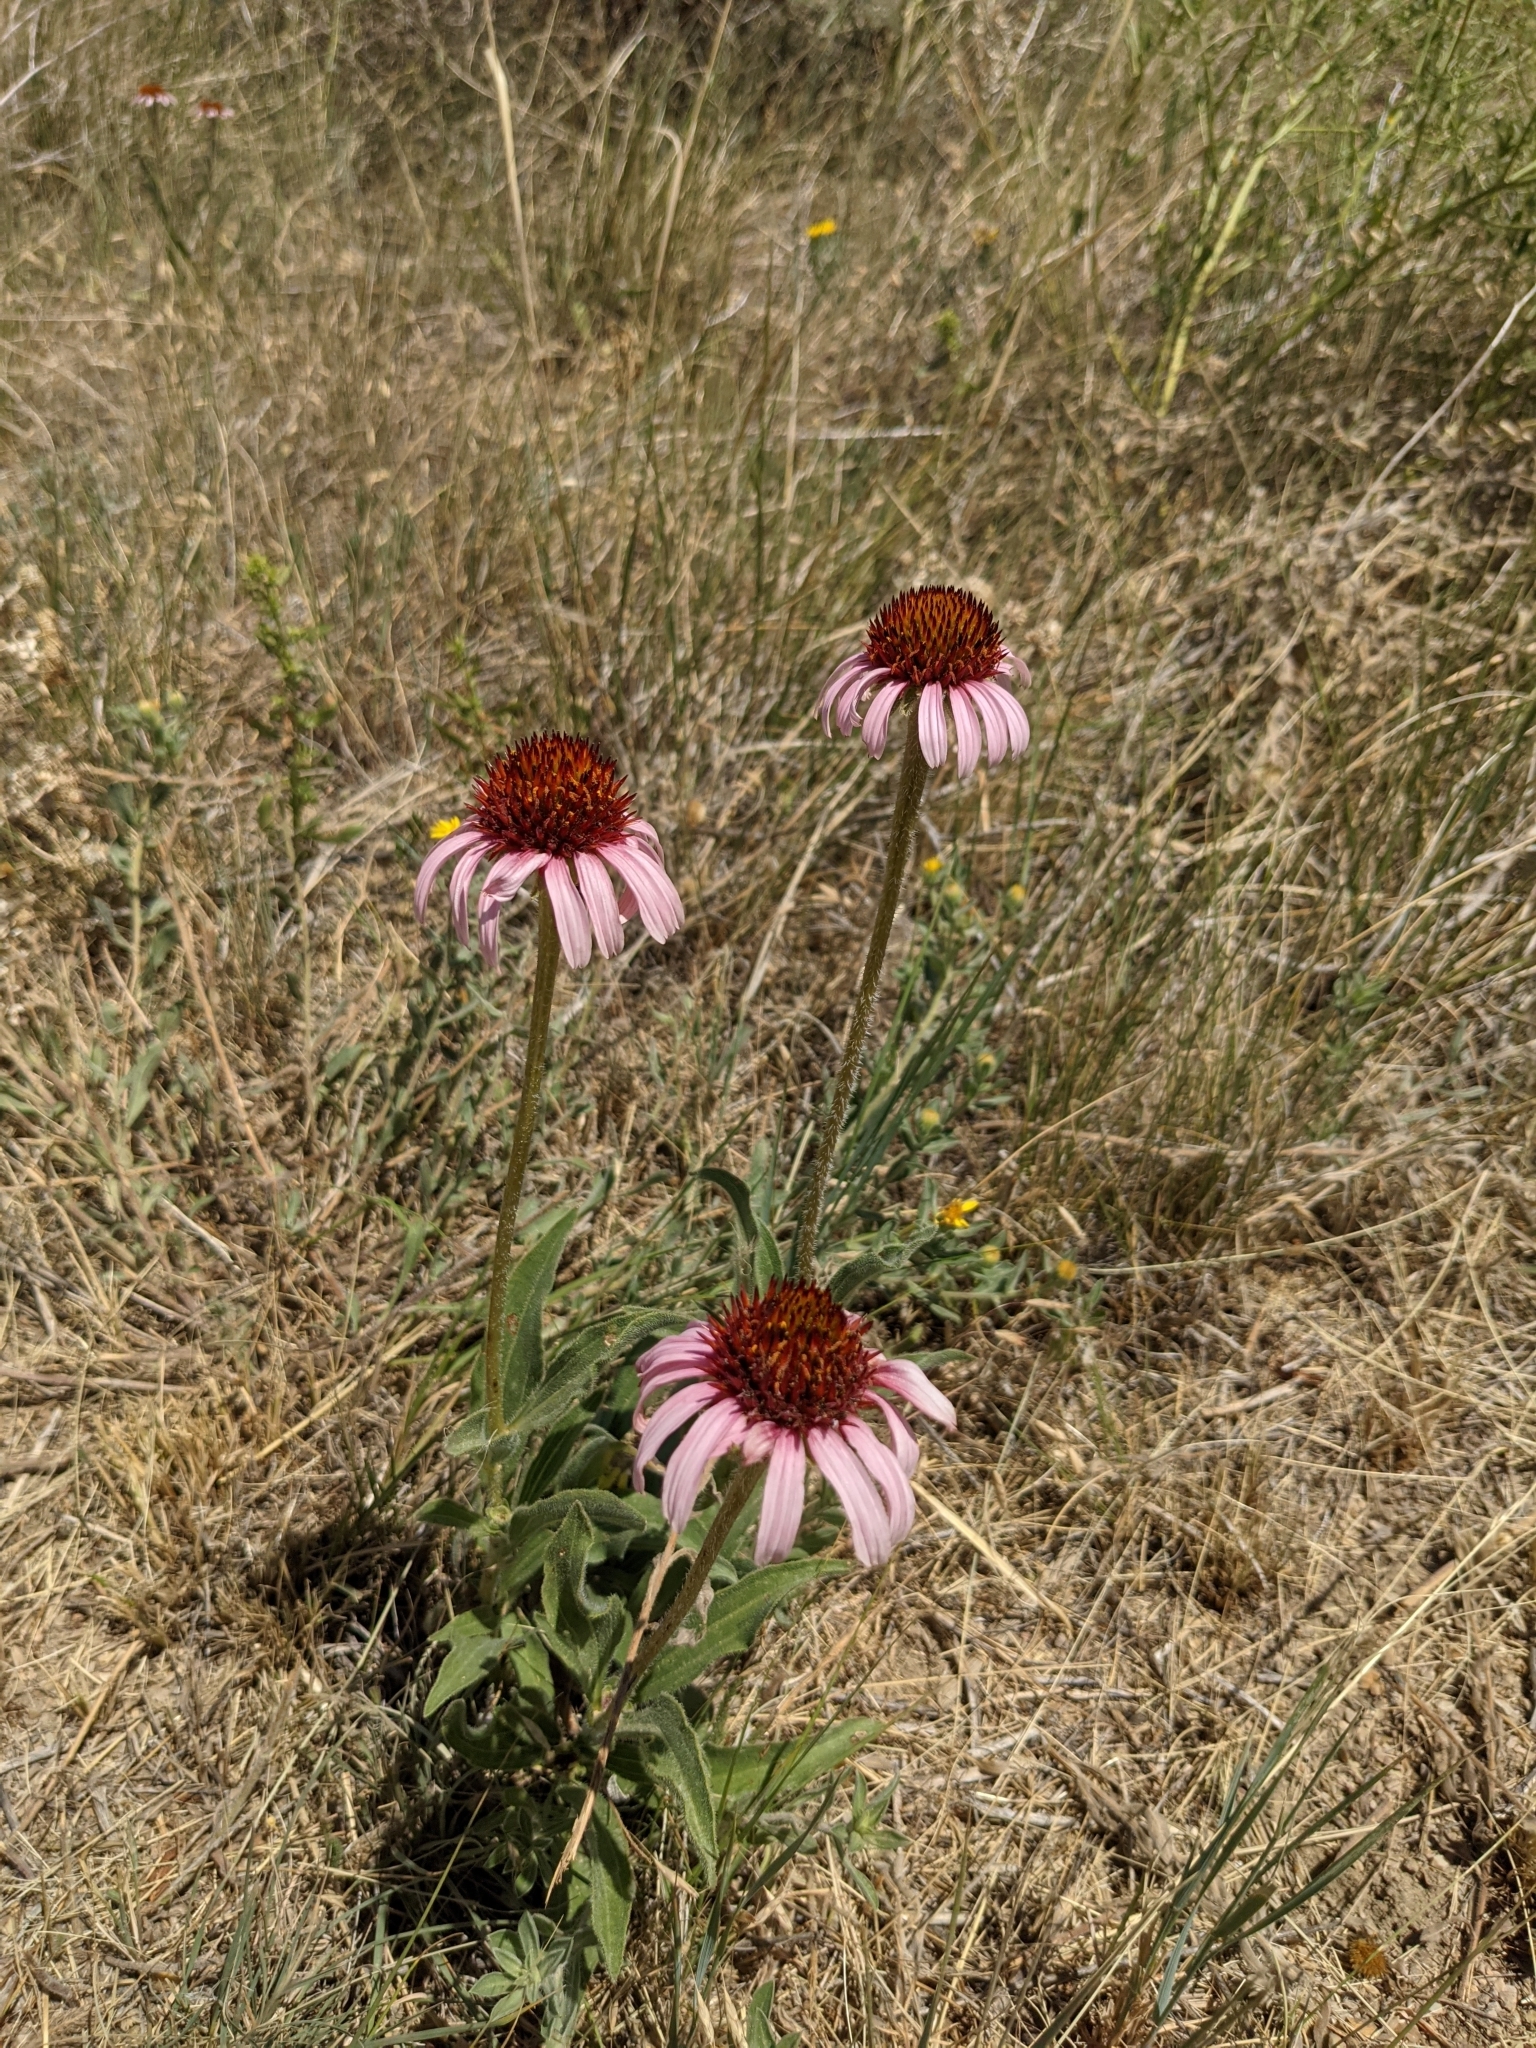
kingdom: Plantae
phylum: Tracheophyta
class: Magnoliopsida
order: Asterales
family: Asteraceae
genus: Echinacea
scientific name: Echinacea angustifolia
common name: Black-sampson echinacea
